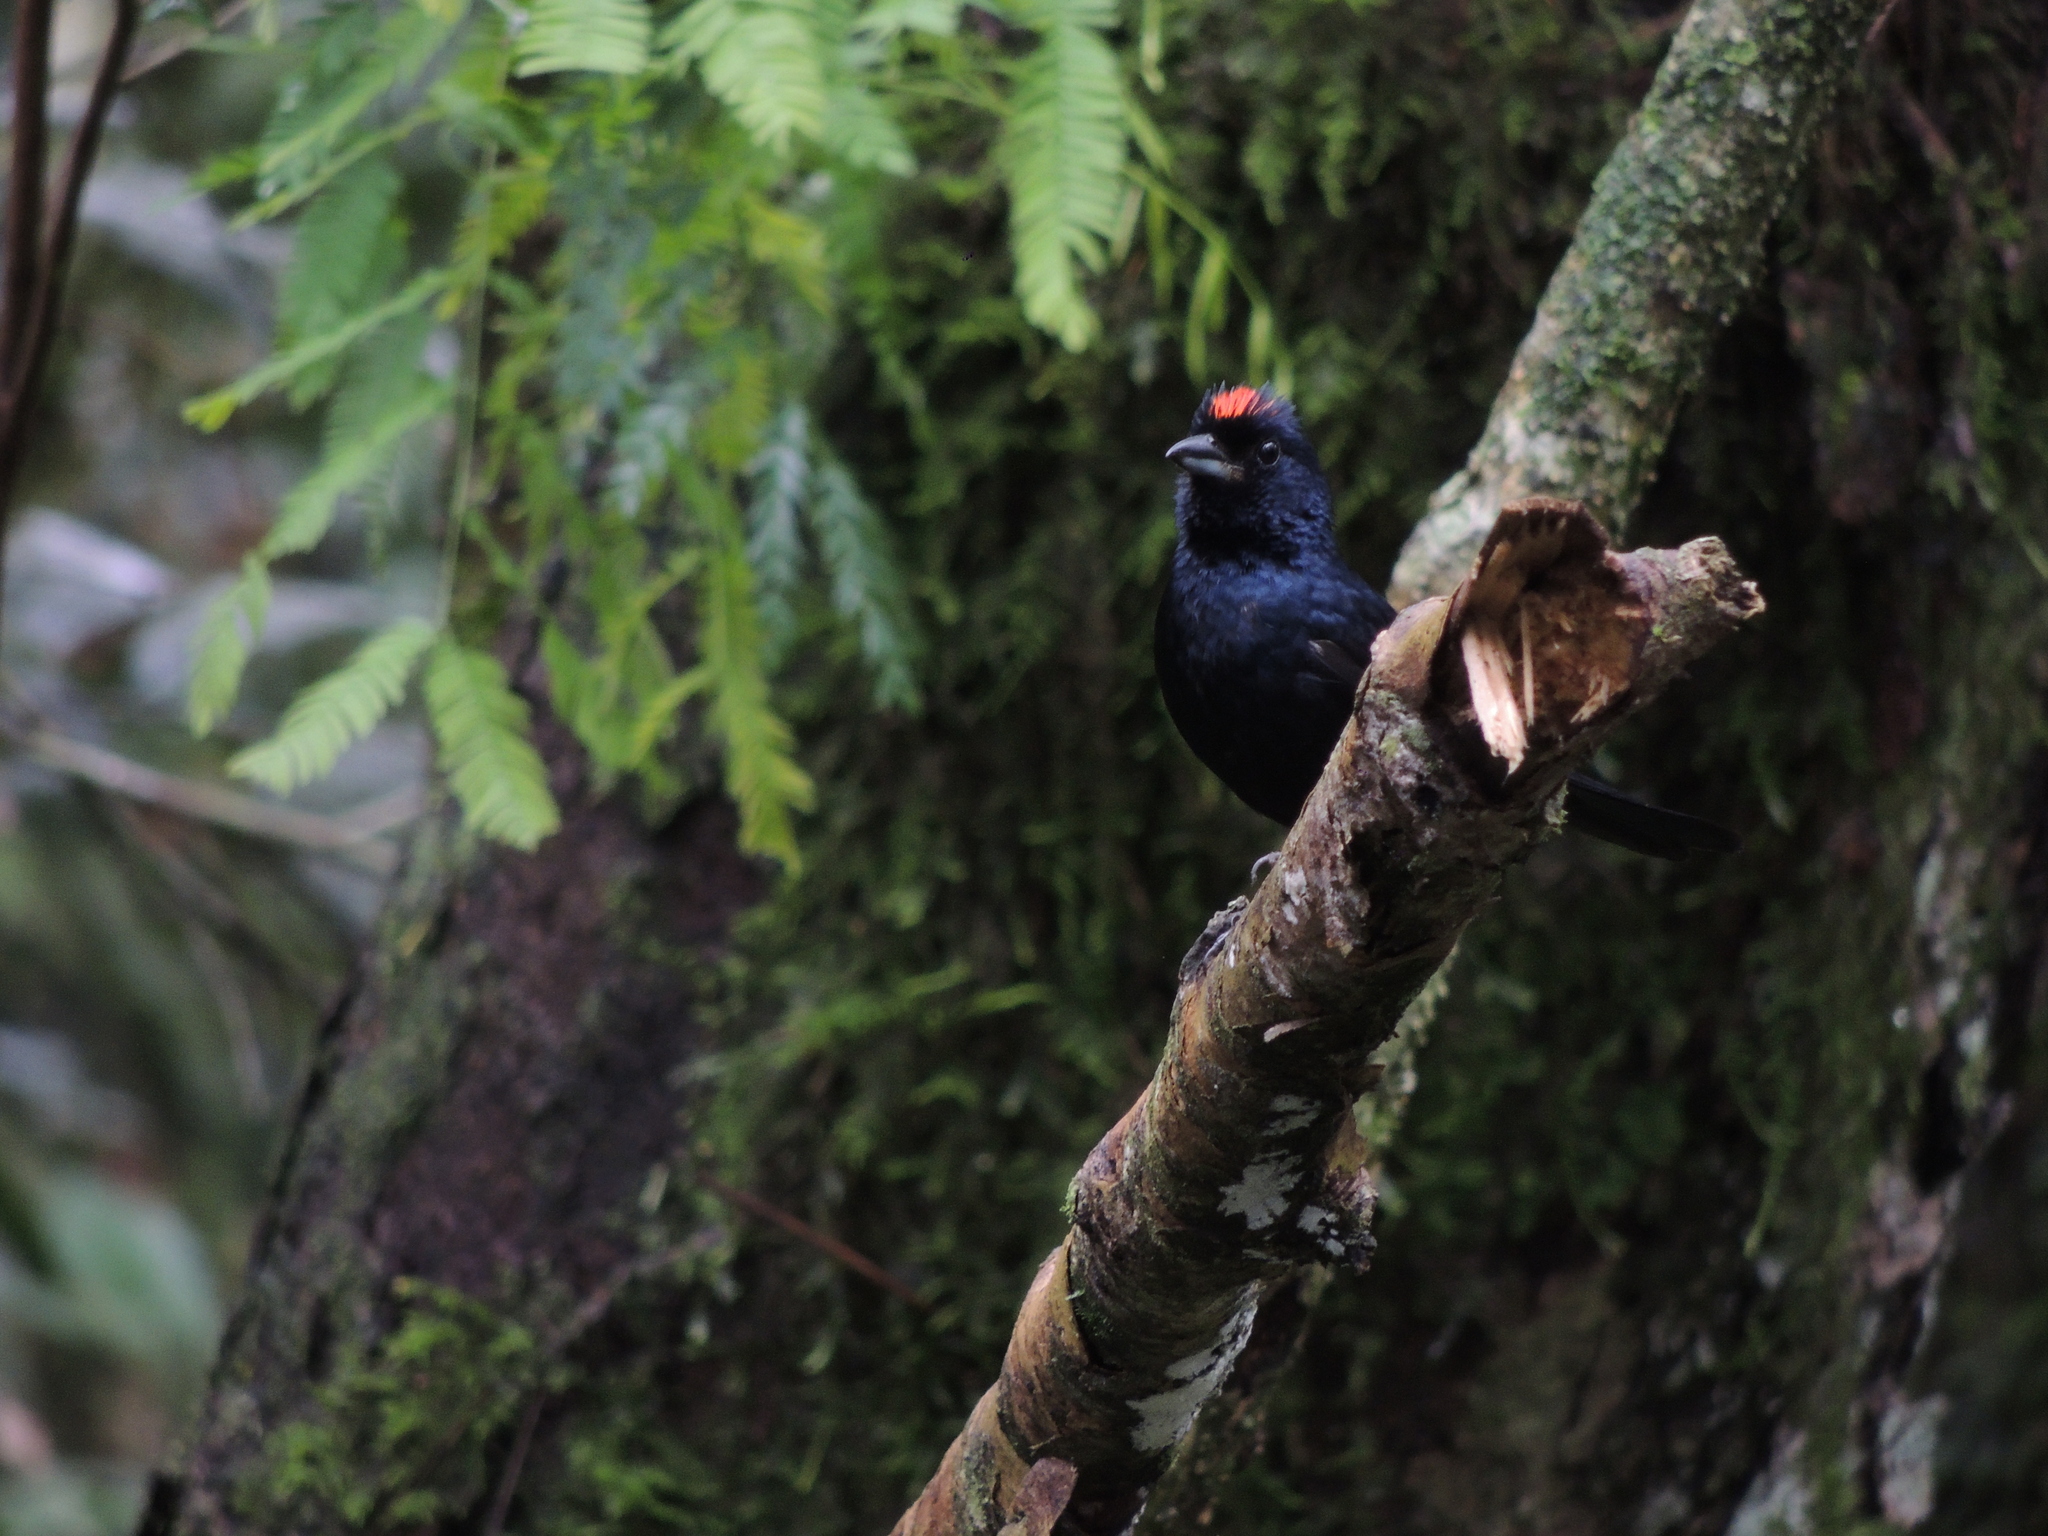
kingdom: Animalia
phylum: Chordata
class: Aves
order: Passeriformes
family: Thraupidae
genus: Tachyphonus
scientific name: Tachyphonus coronatus
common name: Ruby-crowned tanager
